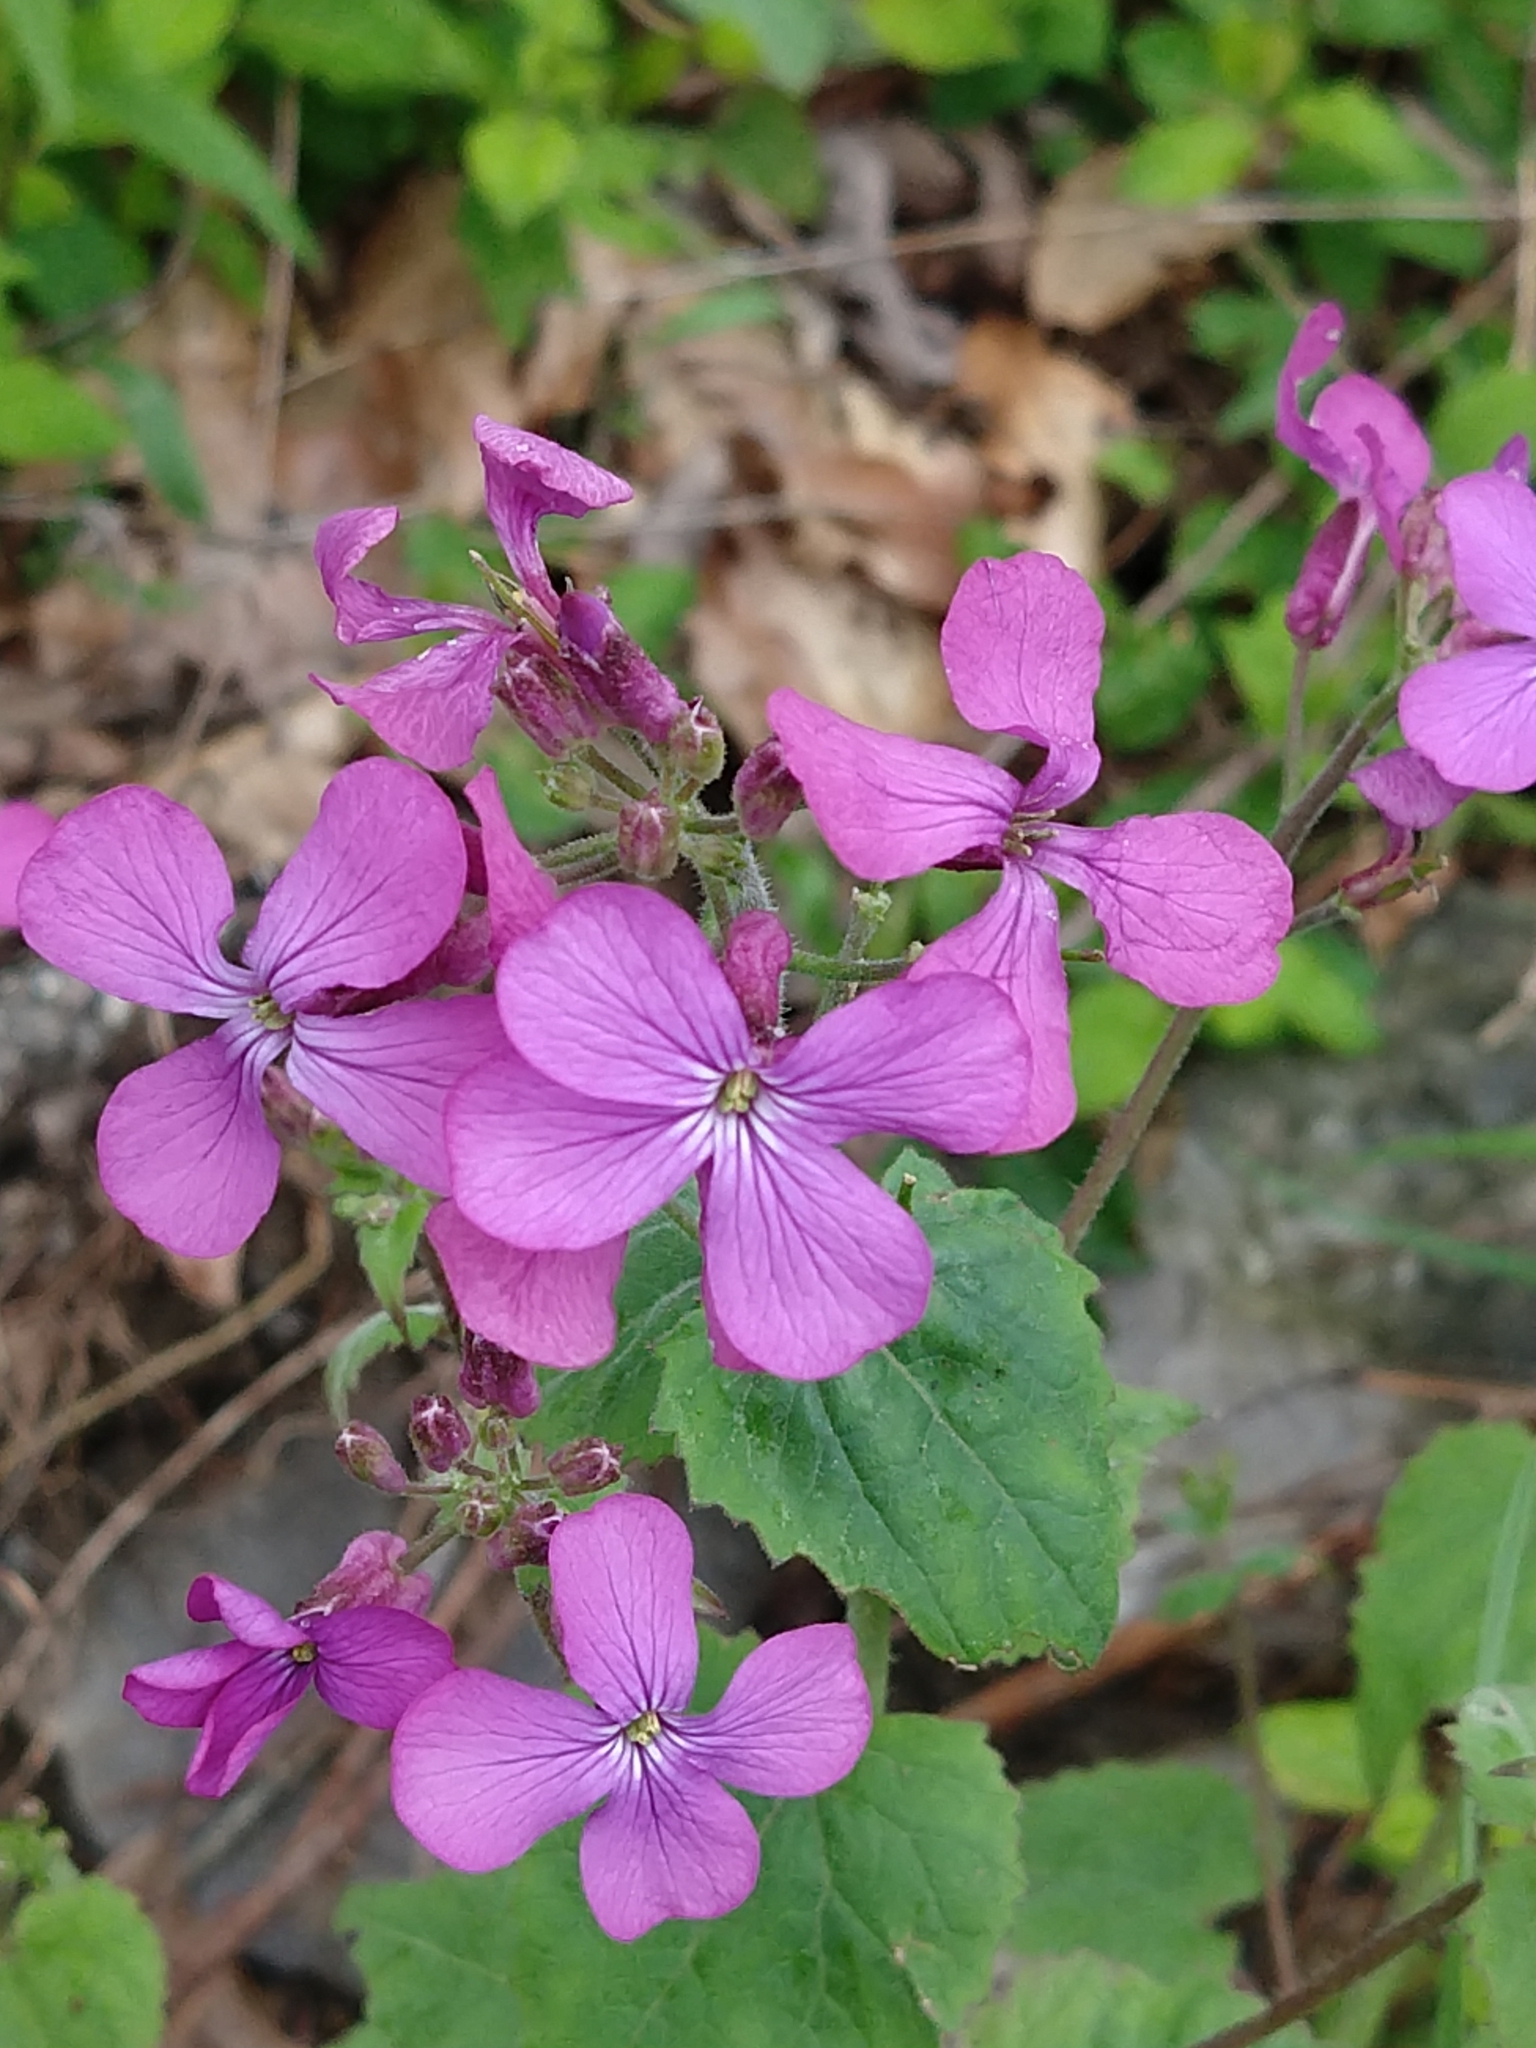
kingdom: Plantae
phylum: Tracheophyta
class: Magnoliopsida
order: Brassicales
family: Brassicaceae
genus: Lunaria
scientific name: Lunaria annua
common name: Honesty
